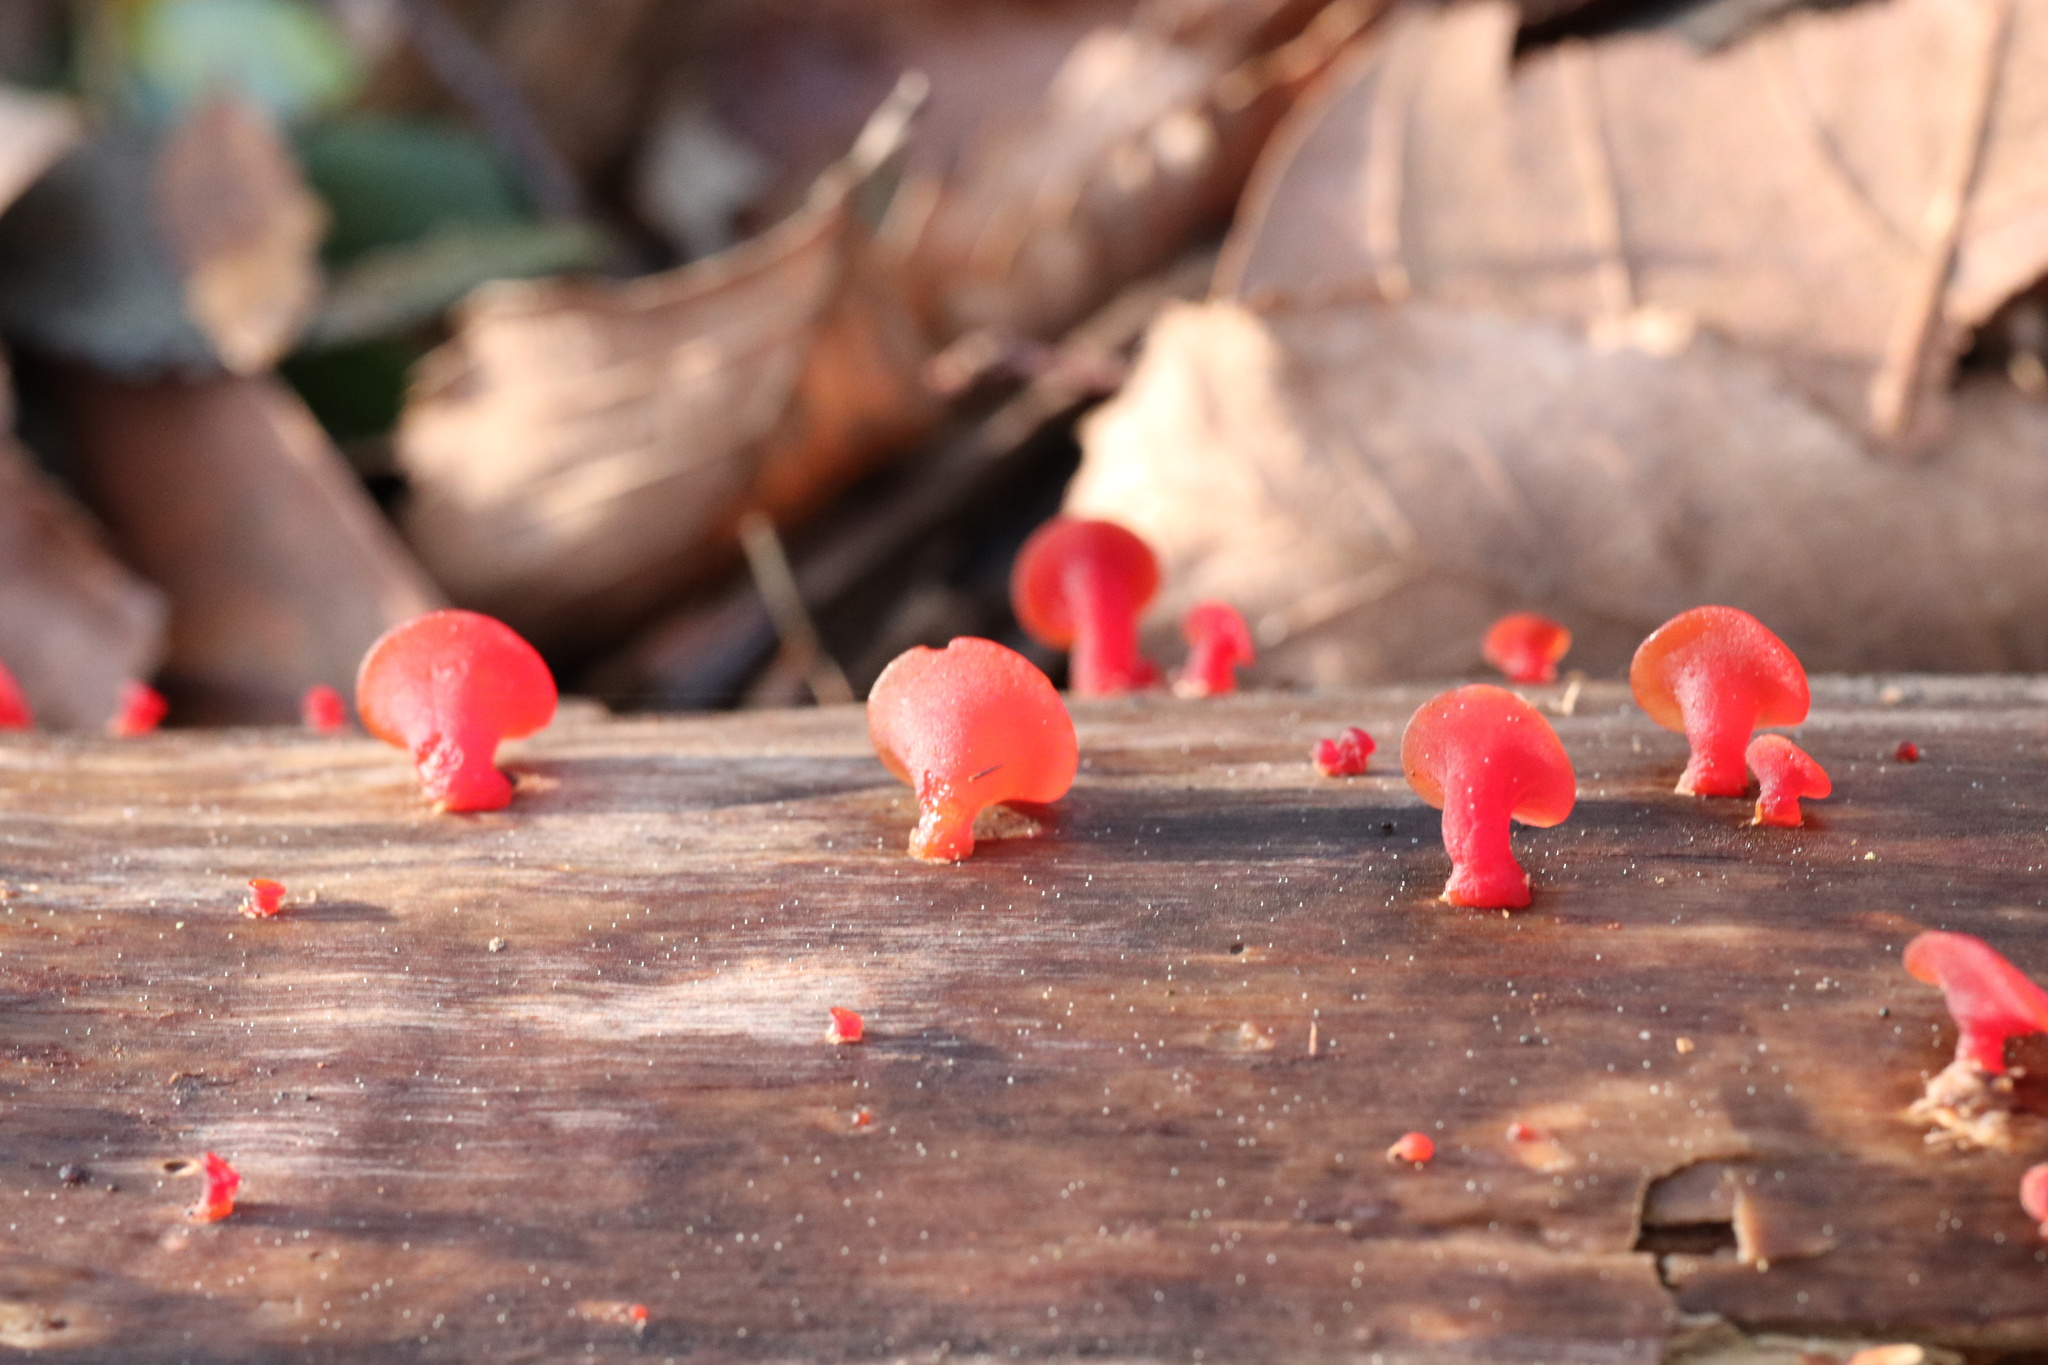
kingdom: Fungi
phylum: Basidiomycota
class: Dacrymycetes
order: Dacrymycetales
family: Dacrymycetaceae
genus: Guepiniopsis
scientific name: Guepiniopsis alpina
